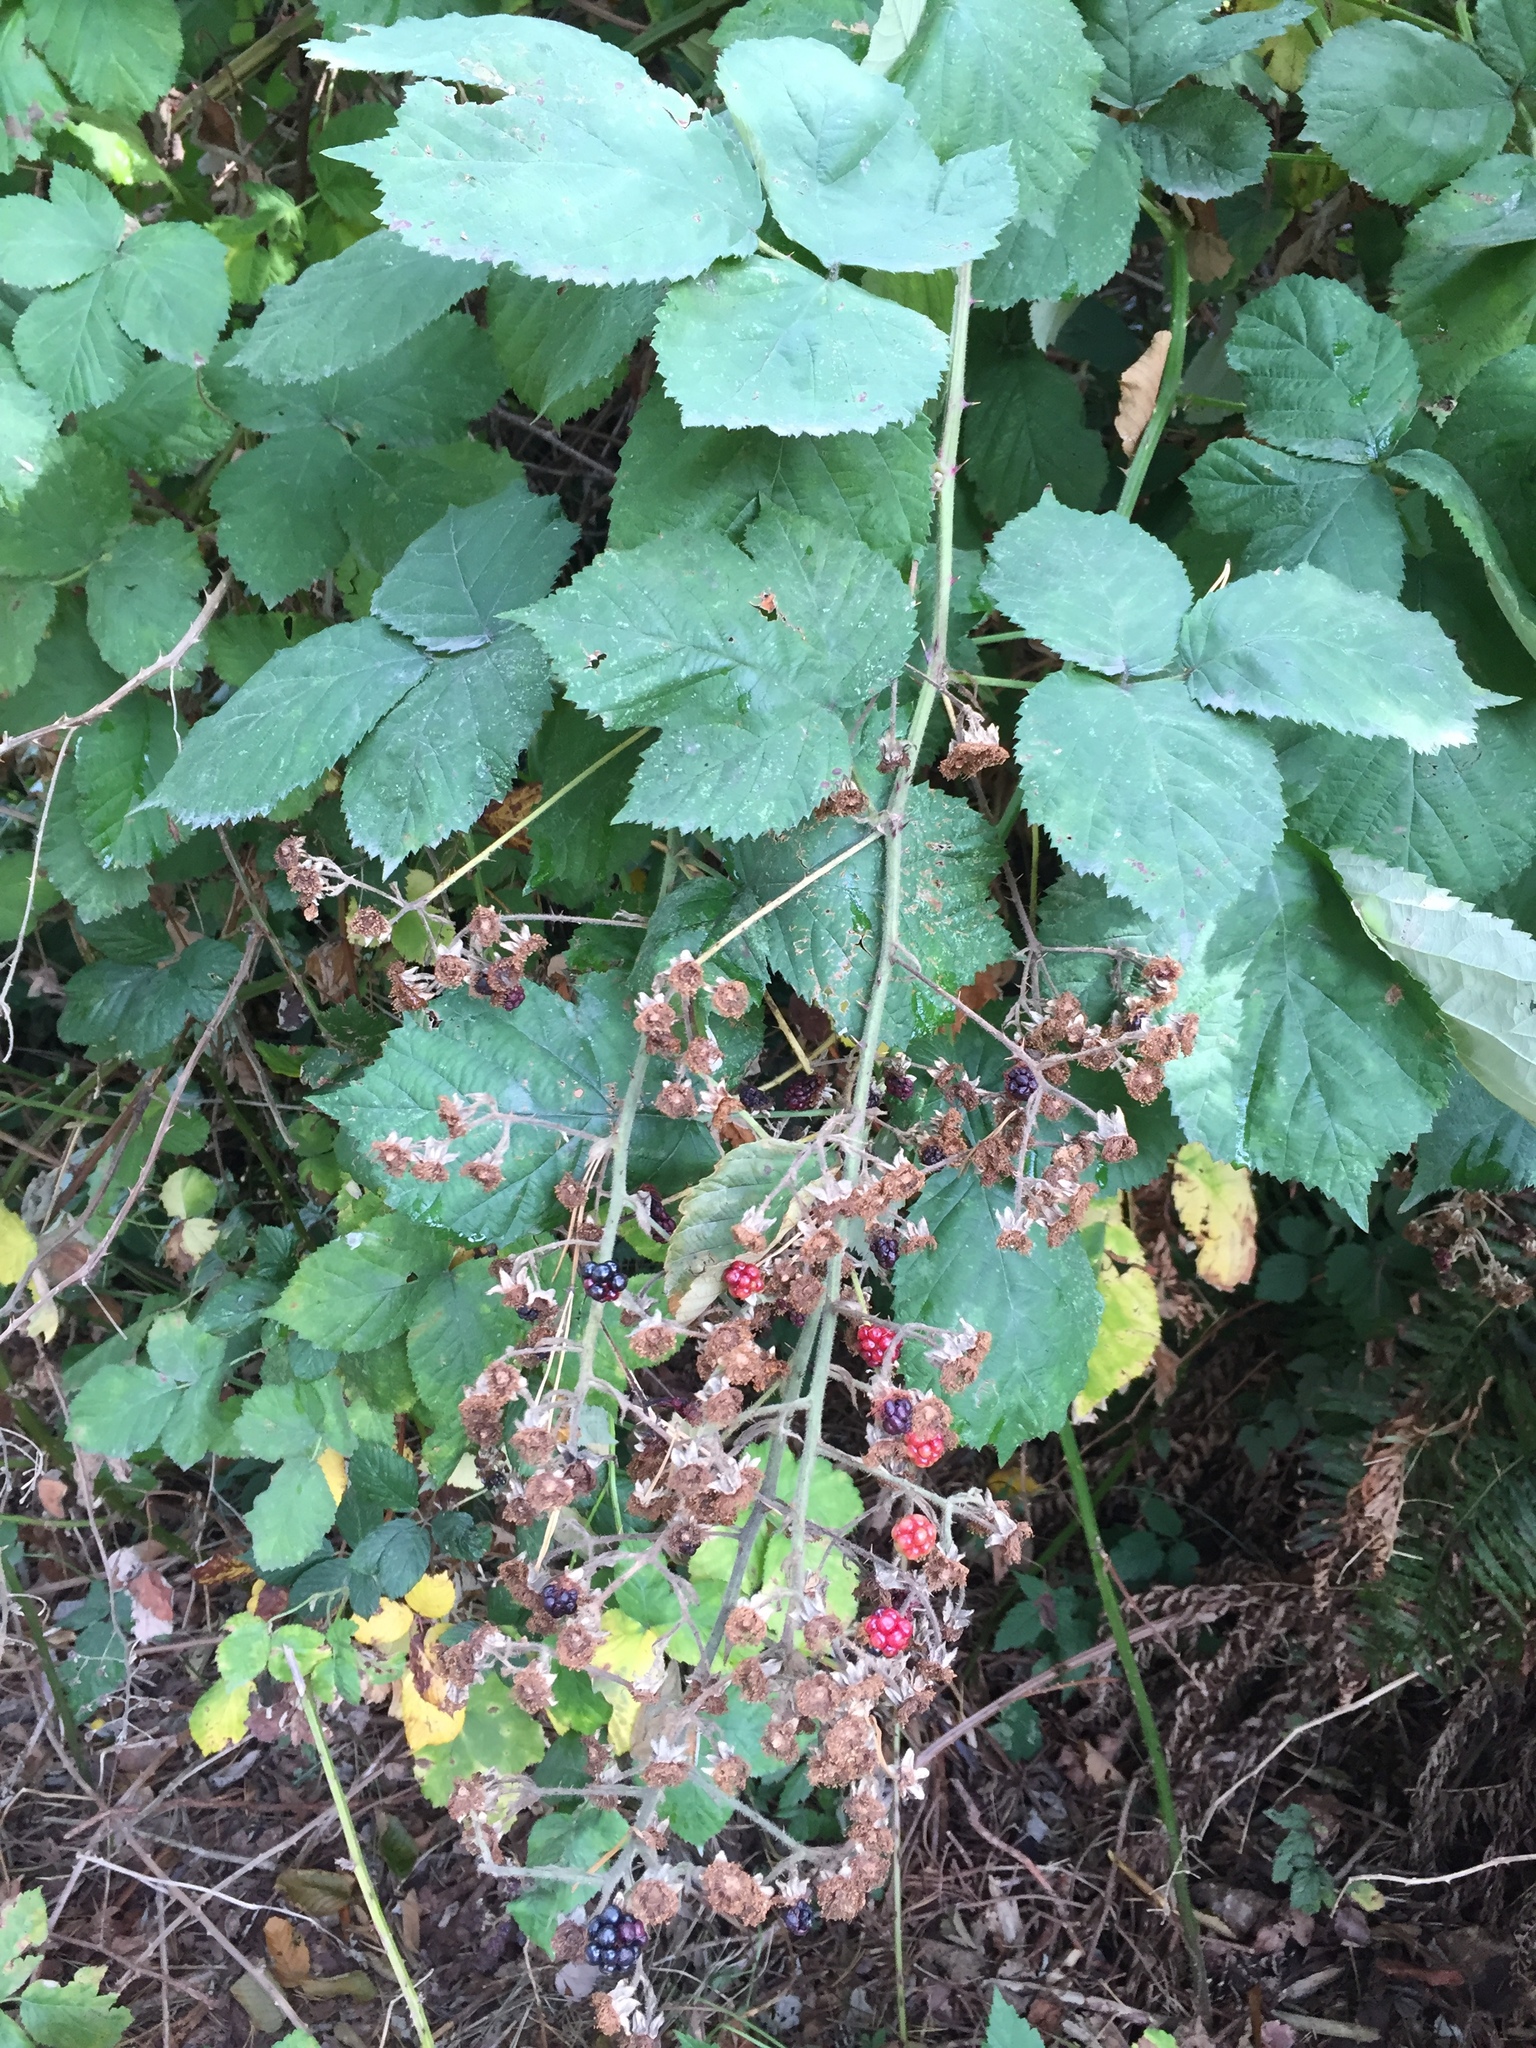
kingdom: Plantae
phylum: Tracheophyta
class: Magnoliopsida
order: Rosales
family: Rosaceae
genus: Rubus
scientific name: Rubus bifrons
